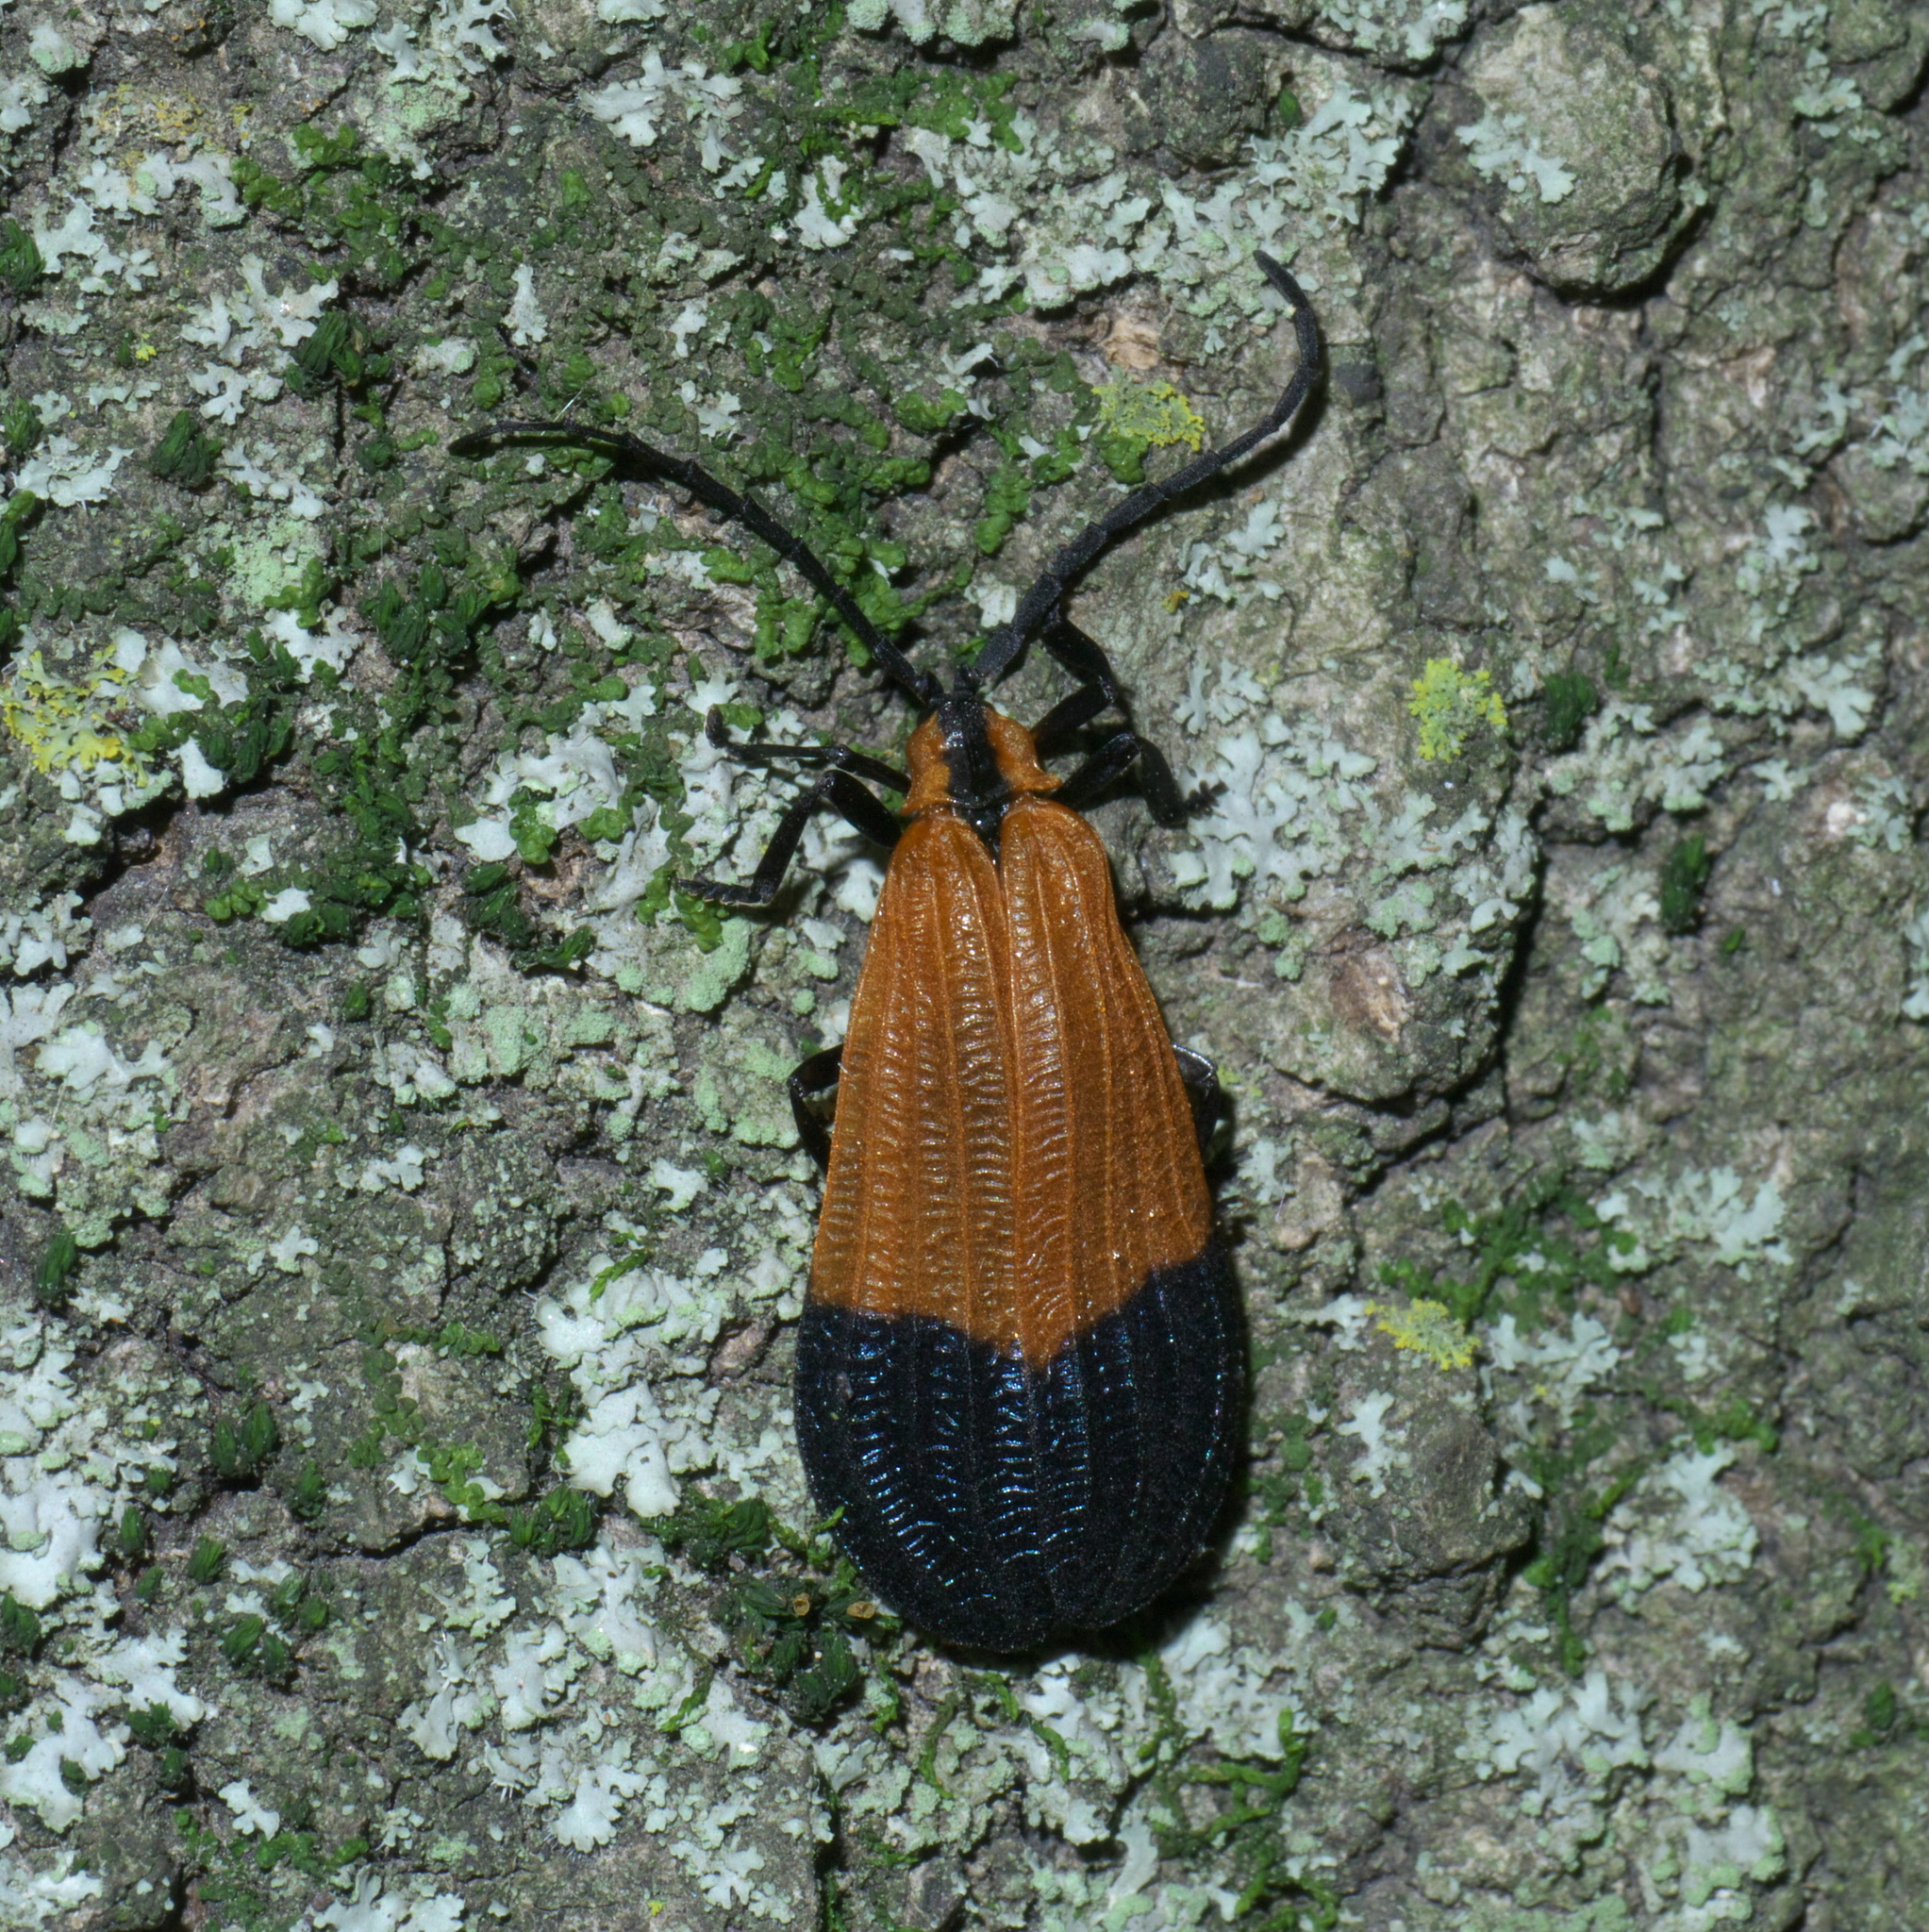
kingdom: Animalia
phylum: Arthropoda
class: Insecta
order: Coleoptera
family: Lycidae
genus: Calopteron
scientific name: Calopteron terminale
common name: End band net-winged beetle
